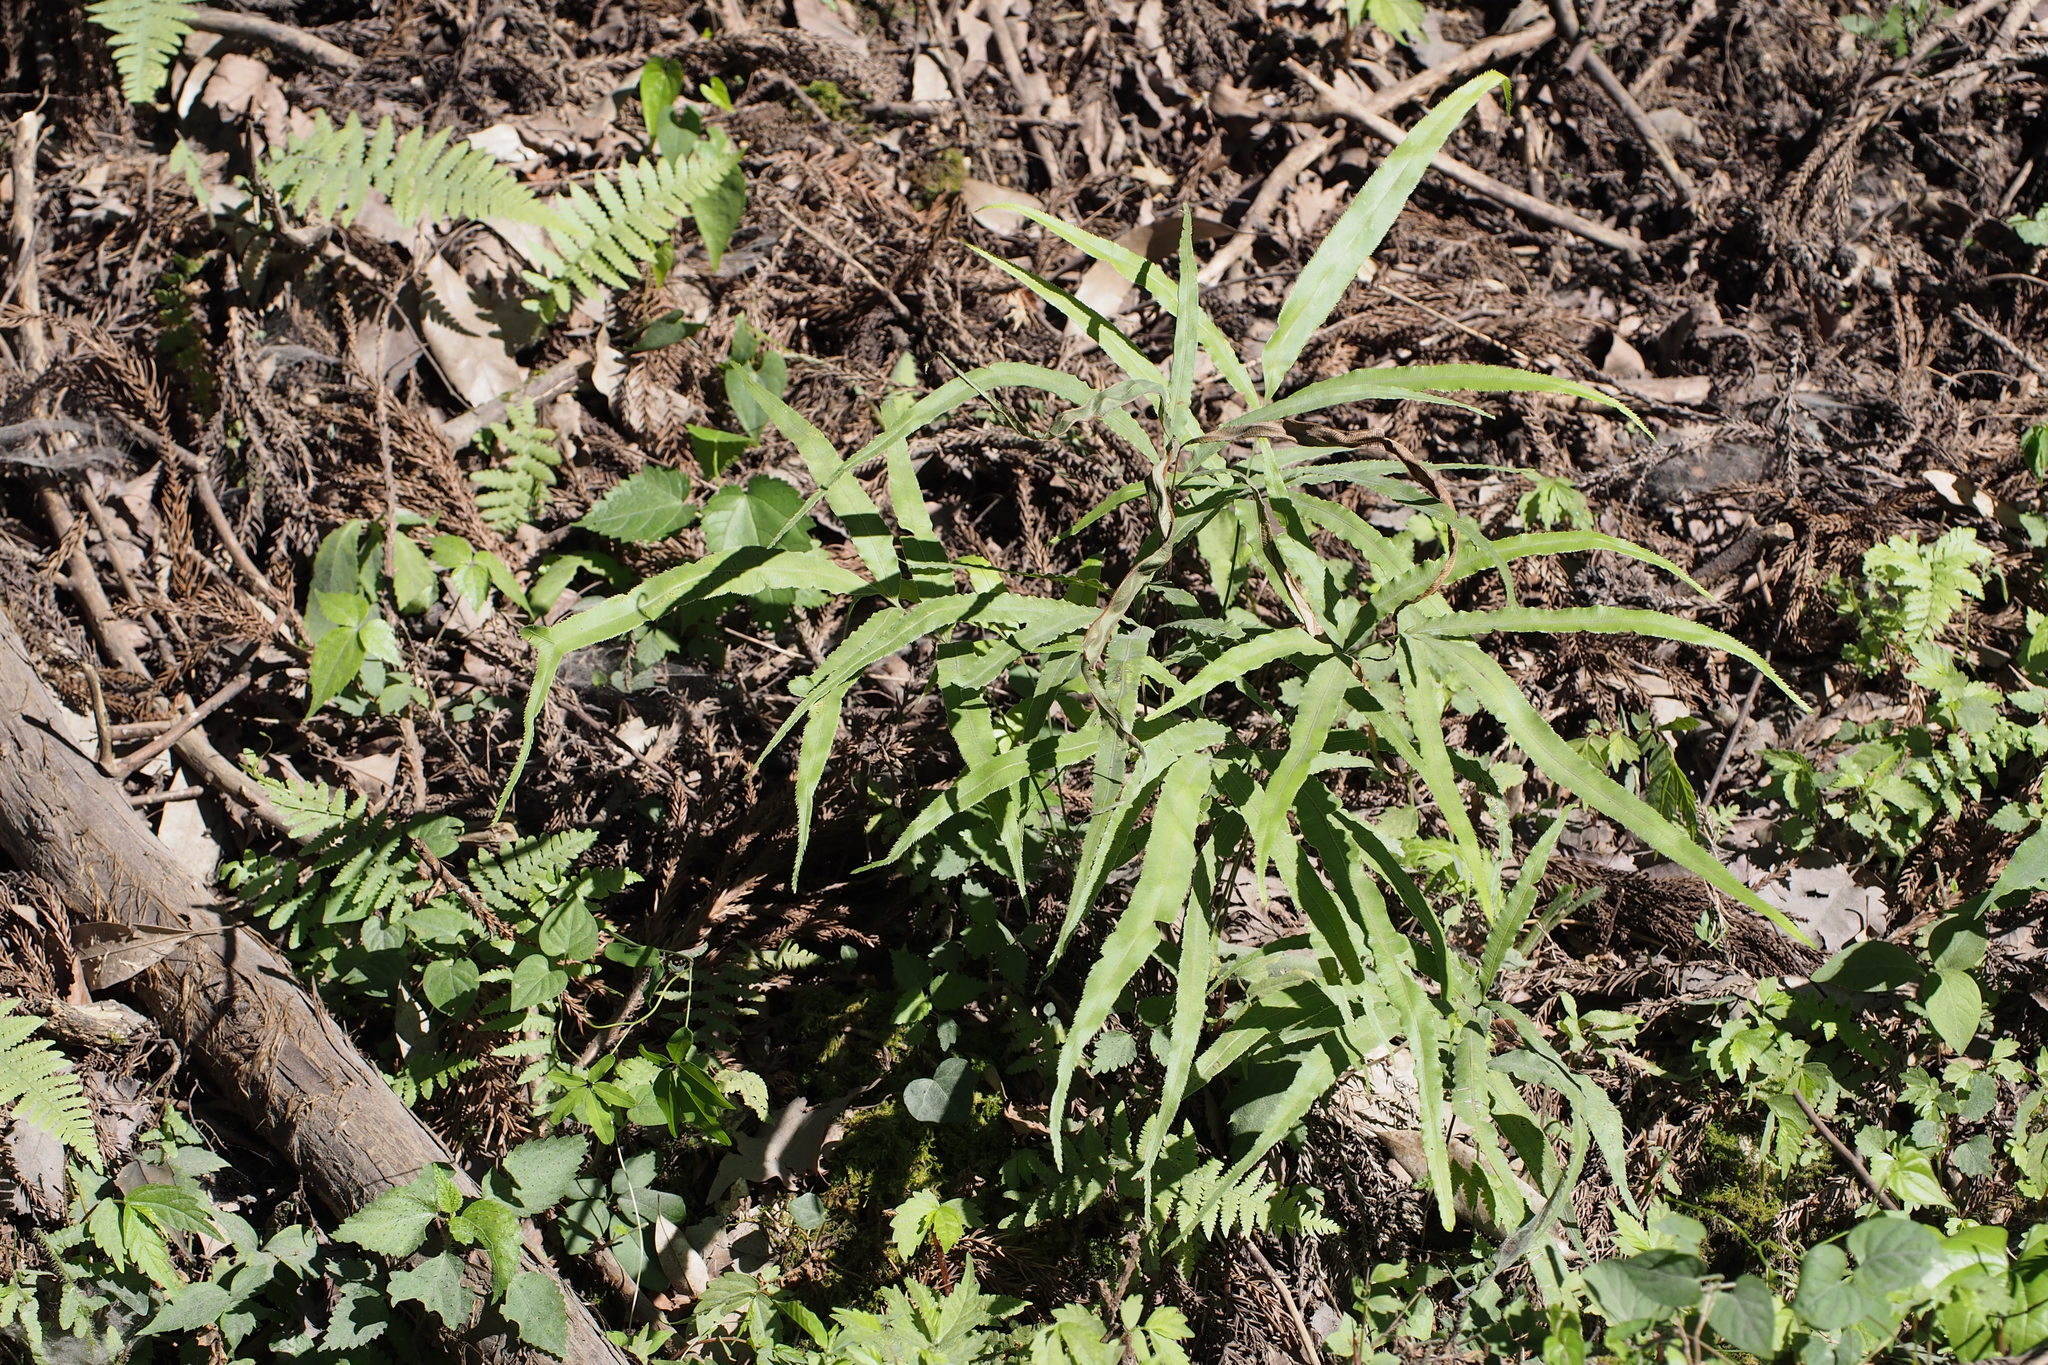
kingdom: Plantae
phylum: Tracheophyta
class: Polypodiopsida
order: Polypodiales
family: Pteridaceae
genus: Pteris
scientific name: Pteris cretica
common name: Ribbon fern
